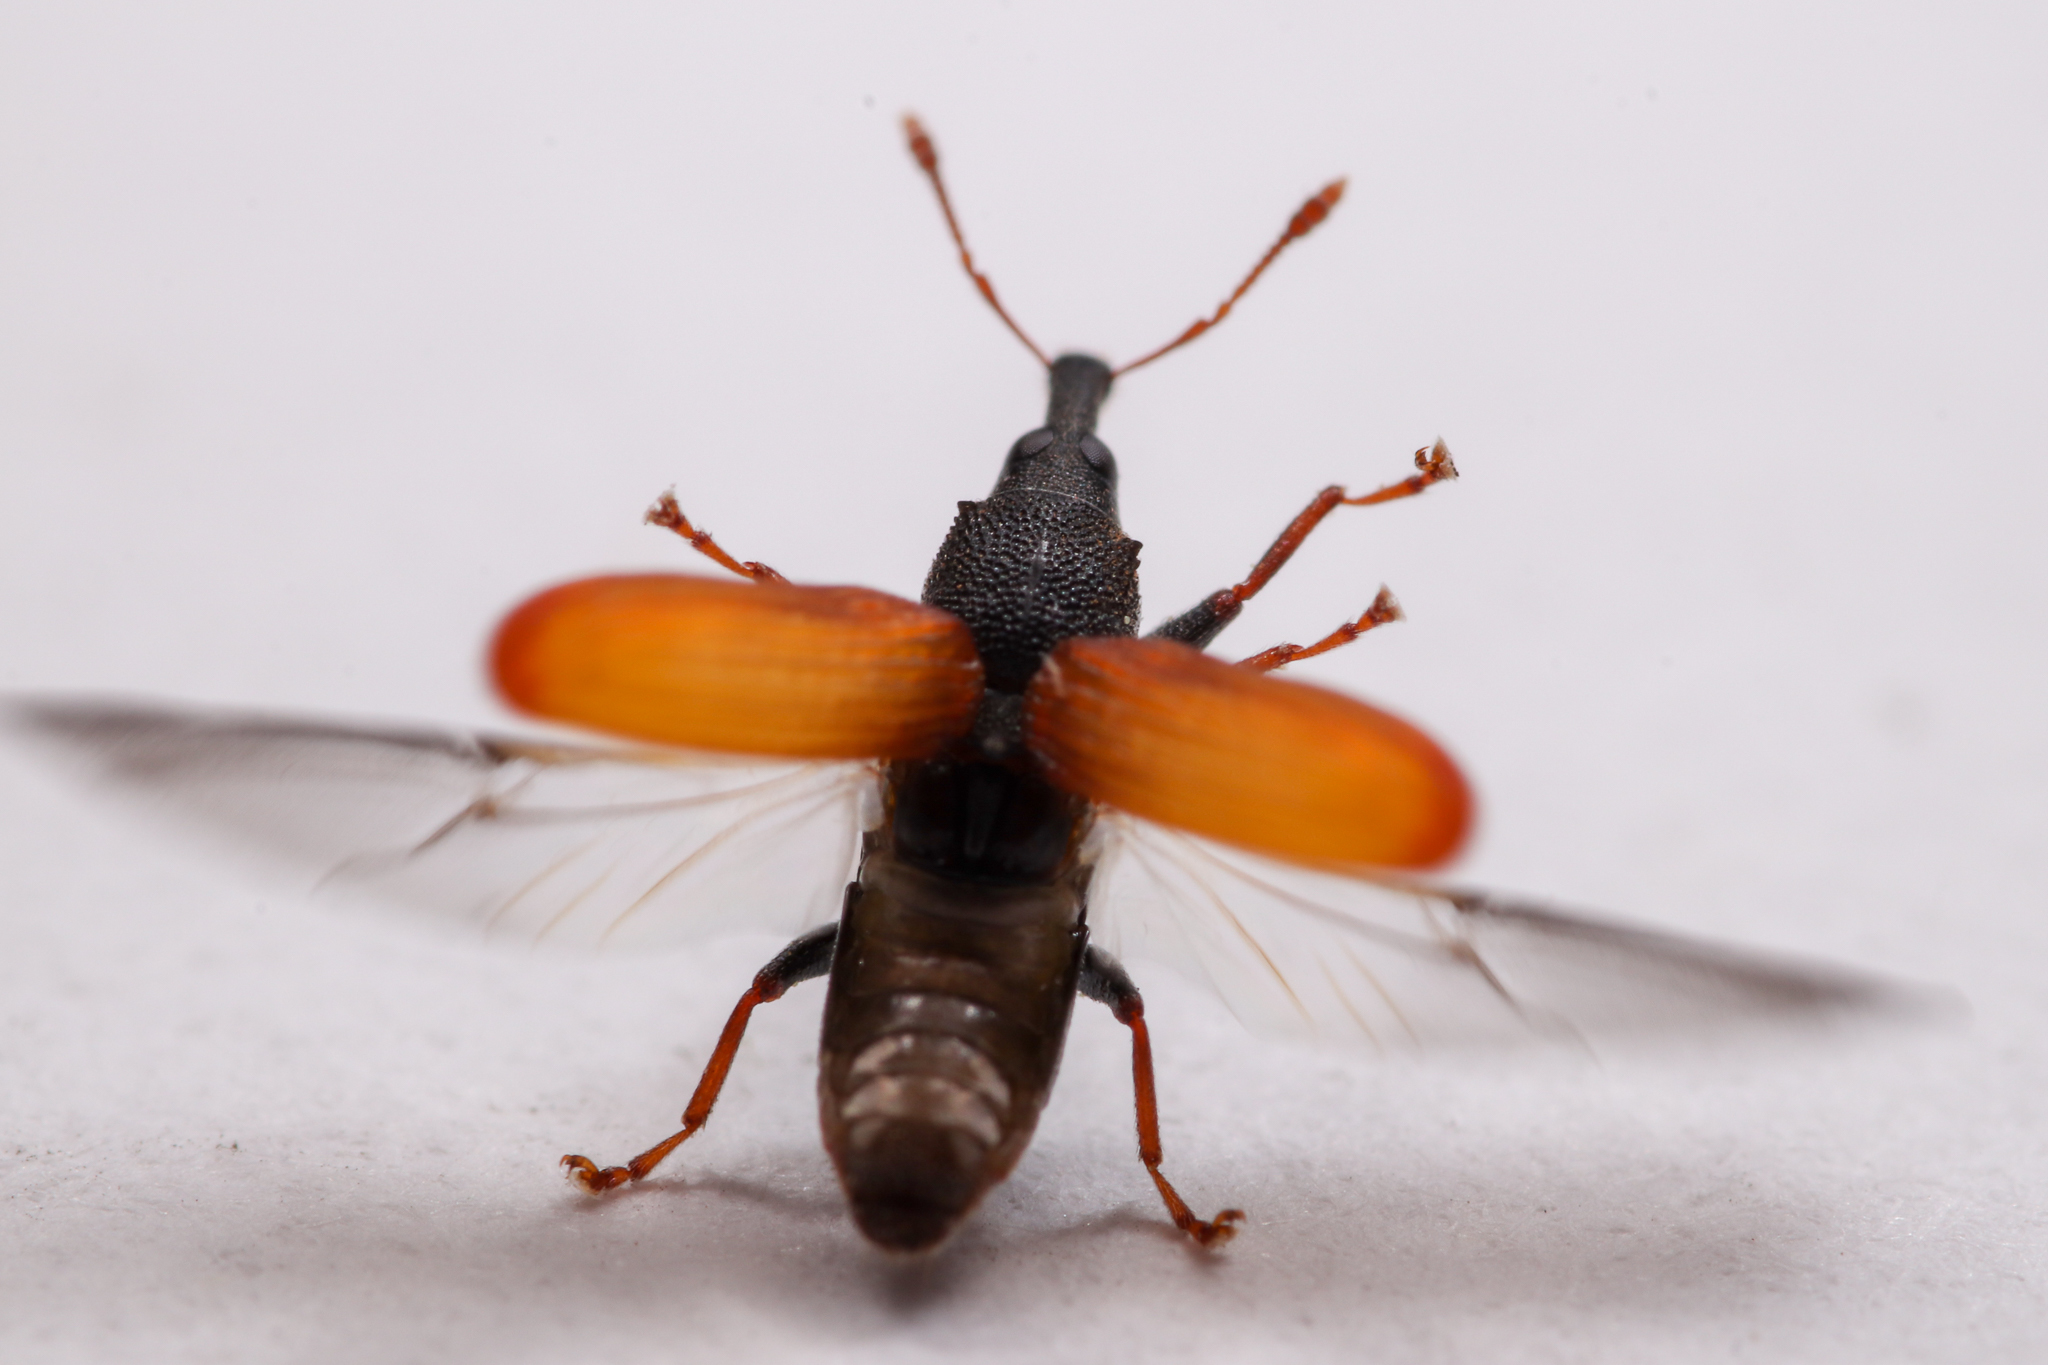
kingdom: Animalia
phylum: Arthropoda
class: Insecta
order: Coleoptera
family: Curculionidae
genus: Magdalis
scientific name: Magdalis armicollis
